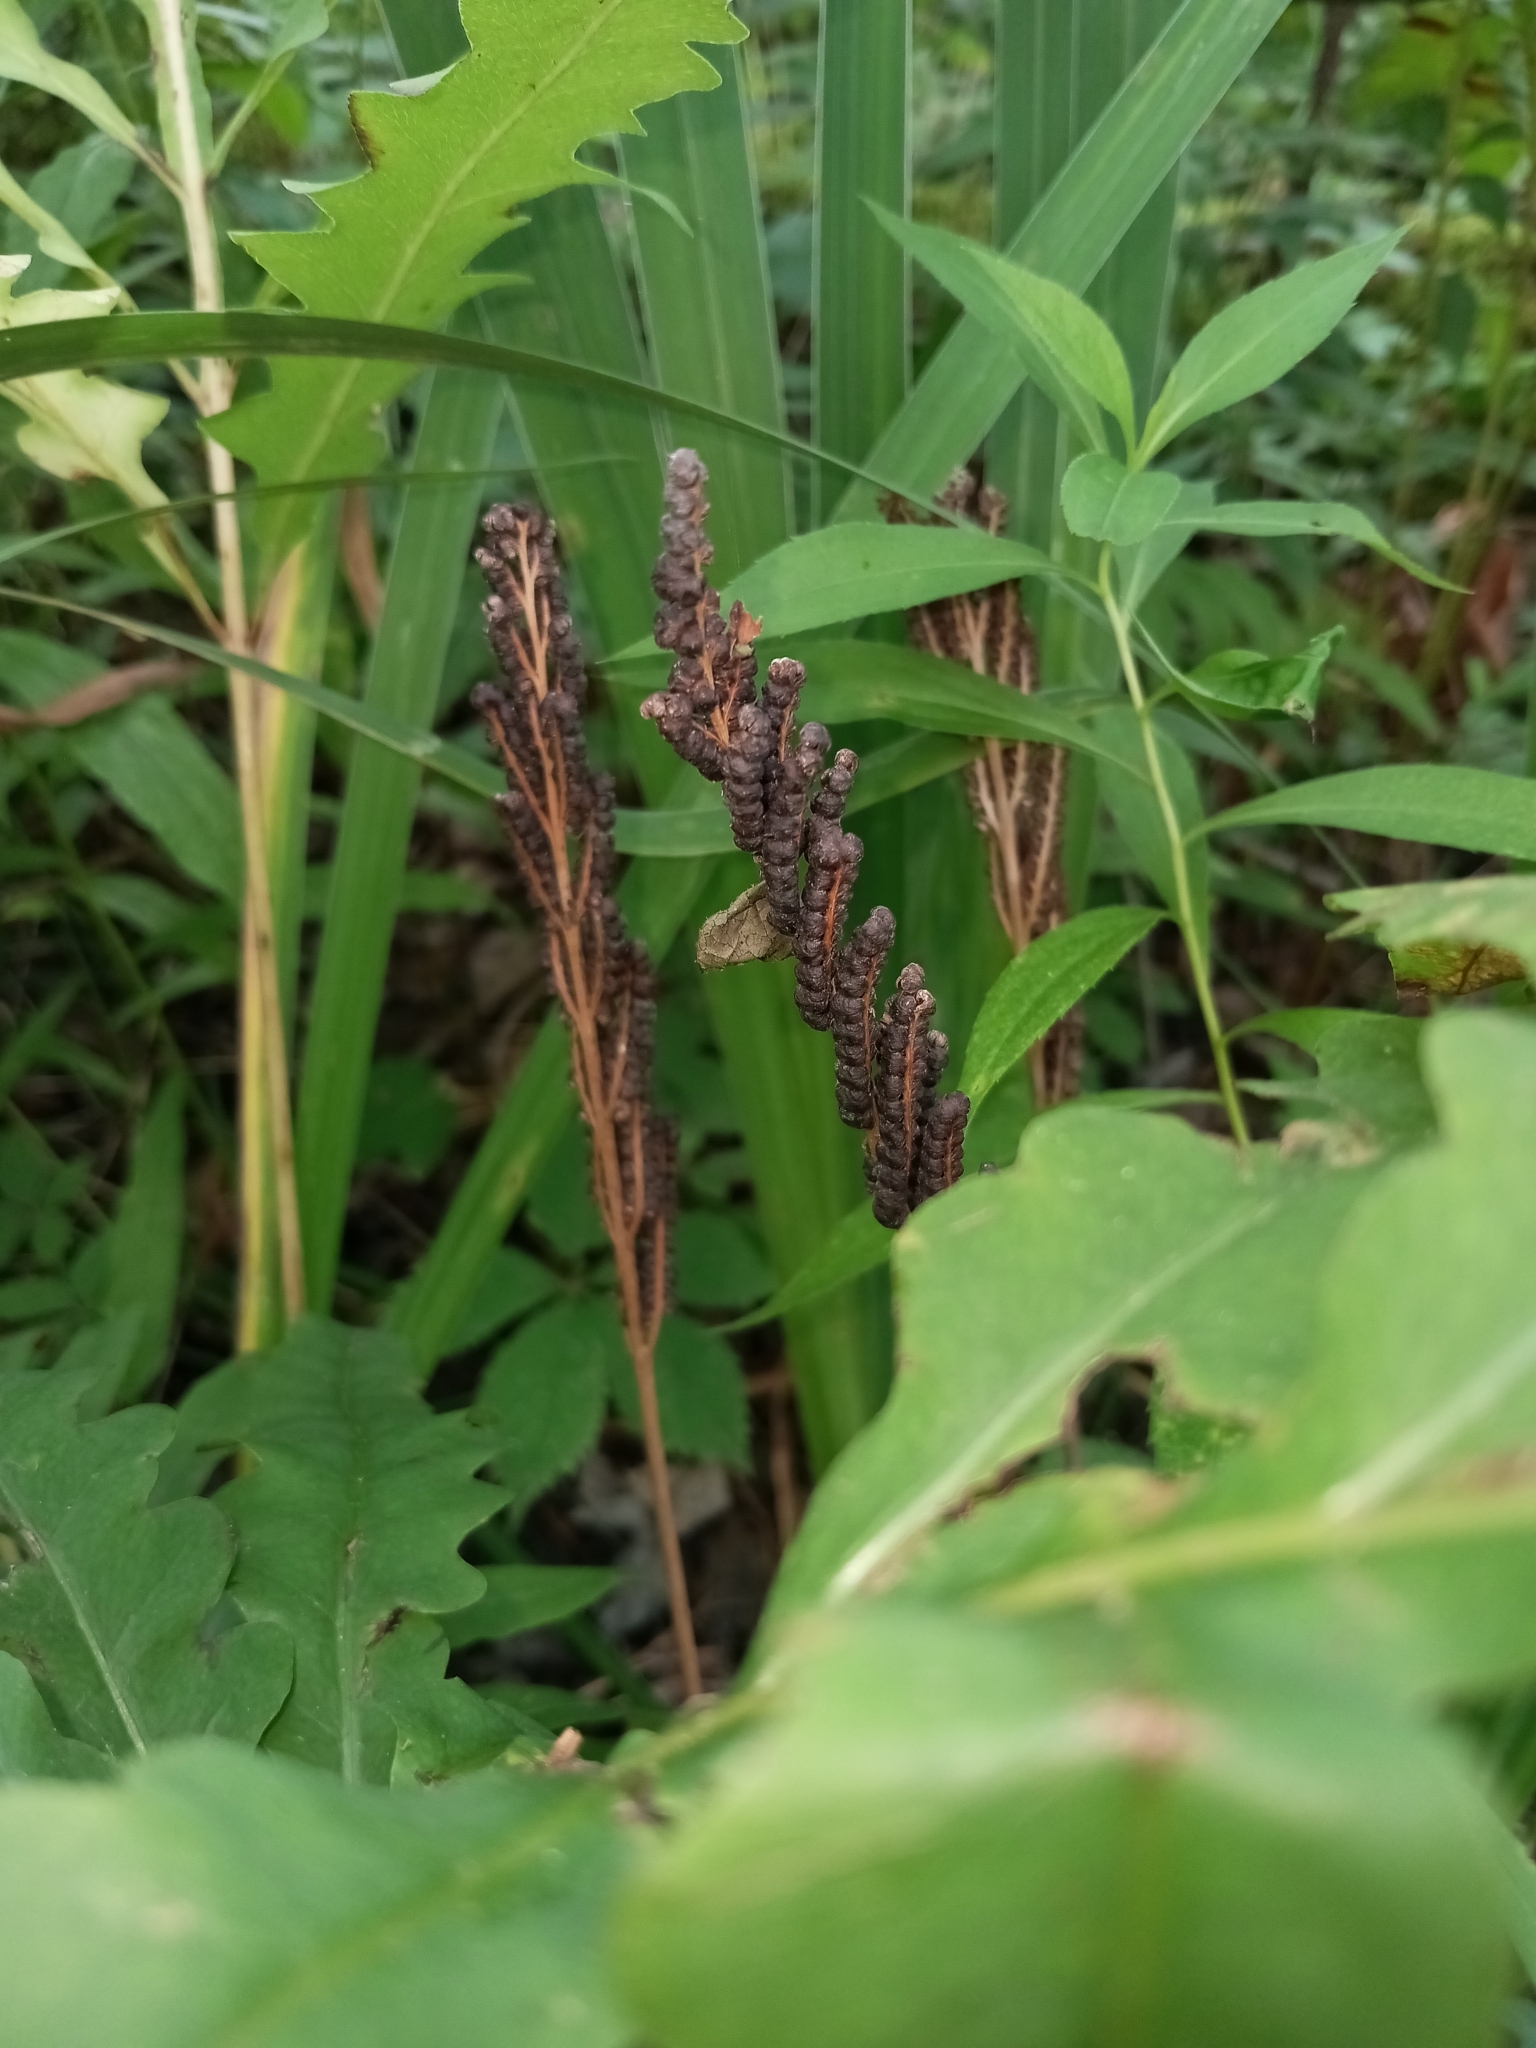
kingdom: Plantae
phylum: Tracheophyta
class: Polypodiopsida
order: Polypodiales
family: Onocleaceae
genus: Onoclea
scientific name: Onoclea sensibilis
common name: Sensitive fern
